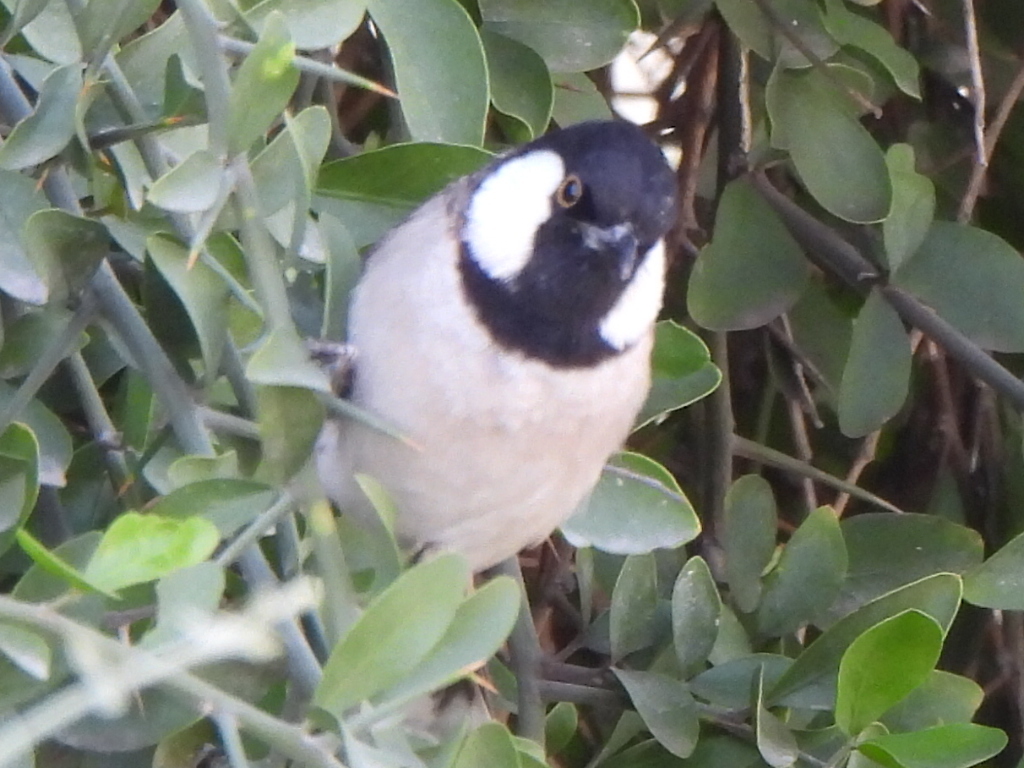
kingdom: Animalia
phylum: Chordata
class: Aves
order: Passeriformes
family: Pycnonotidae
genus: Pycnonotus
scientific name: Pycnonotus leucotis
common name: White-eared bulbul
